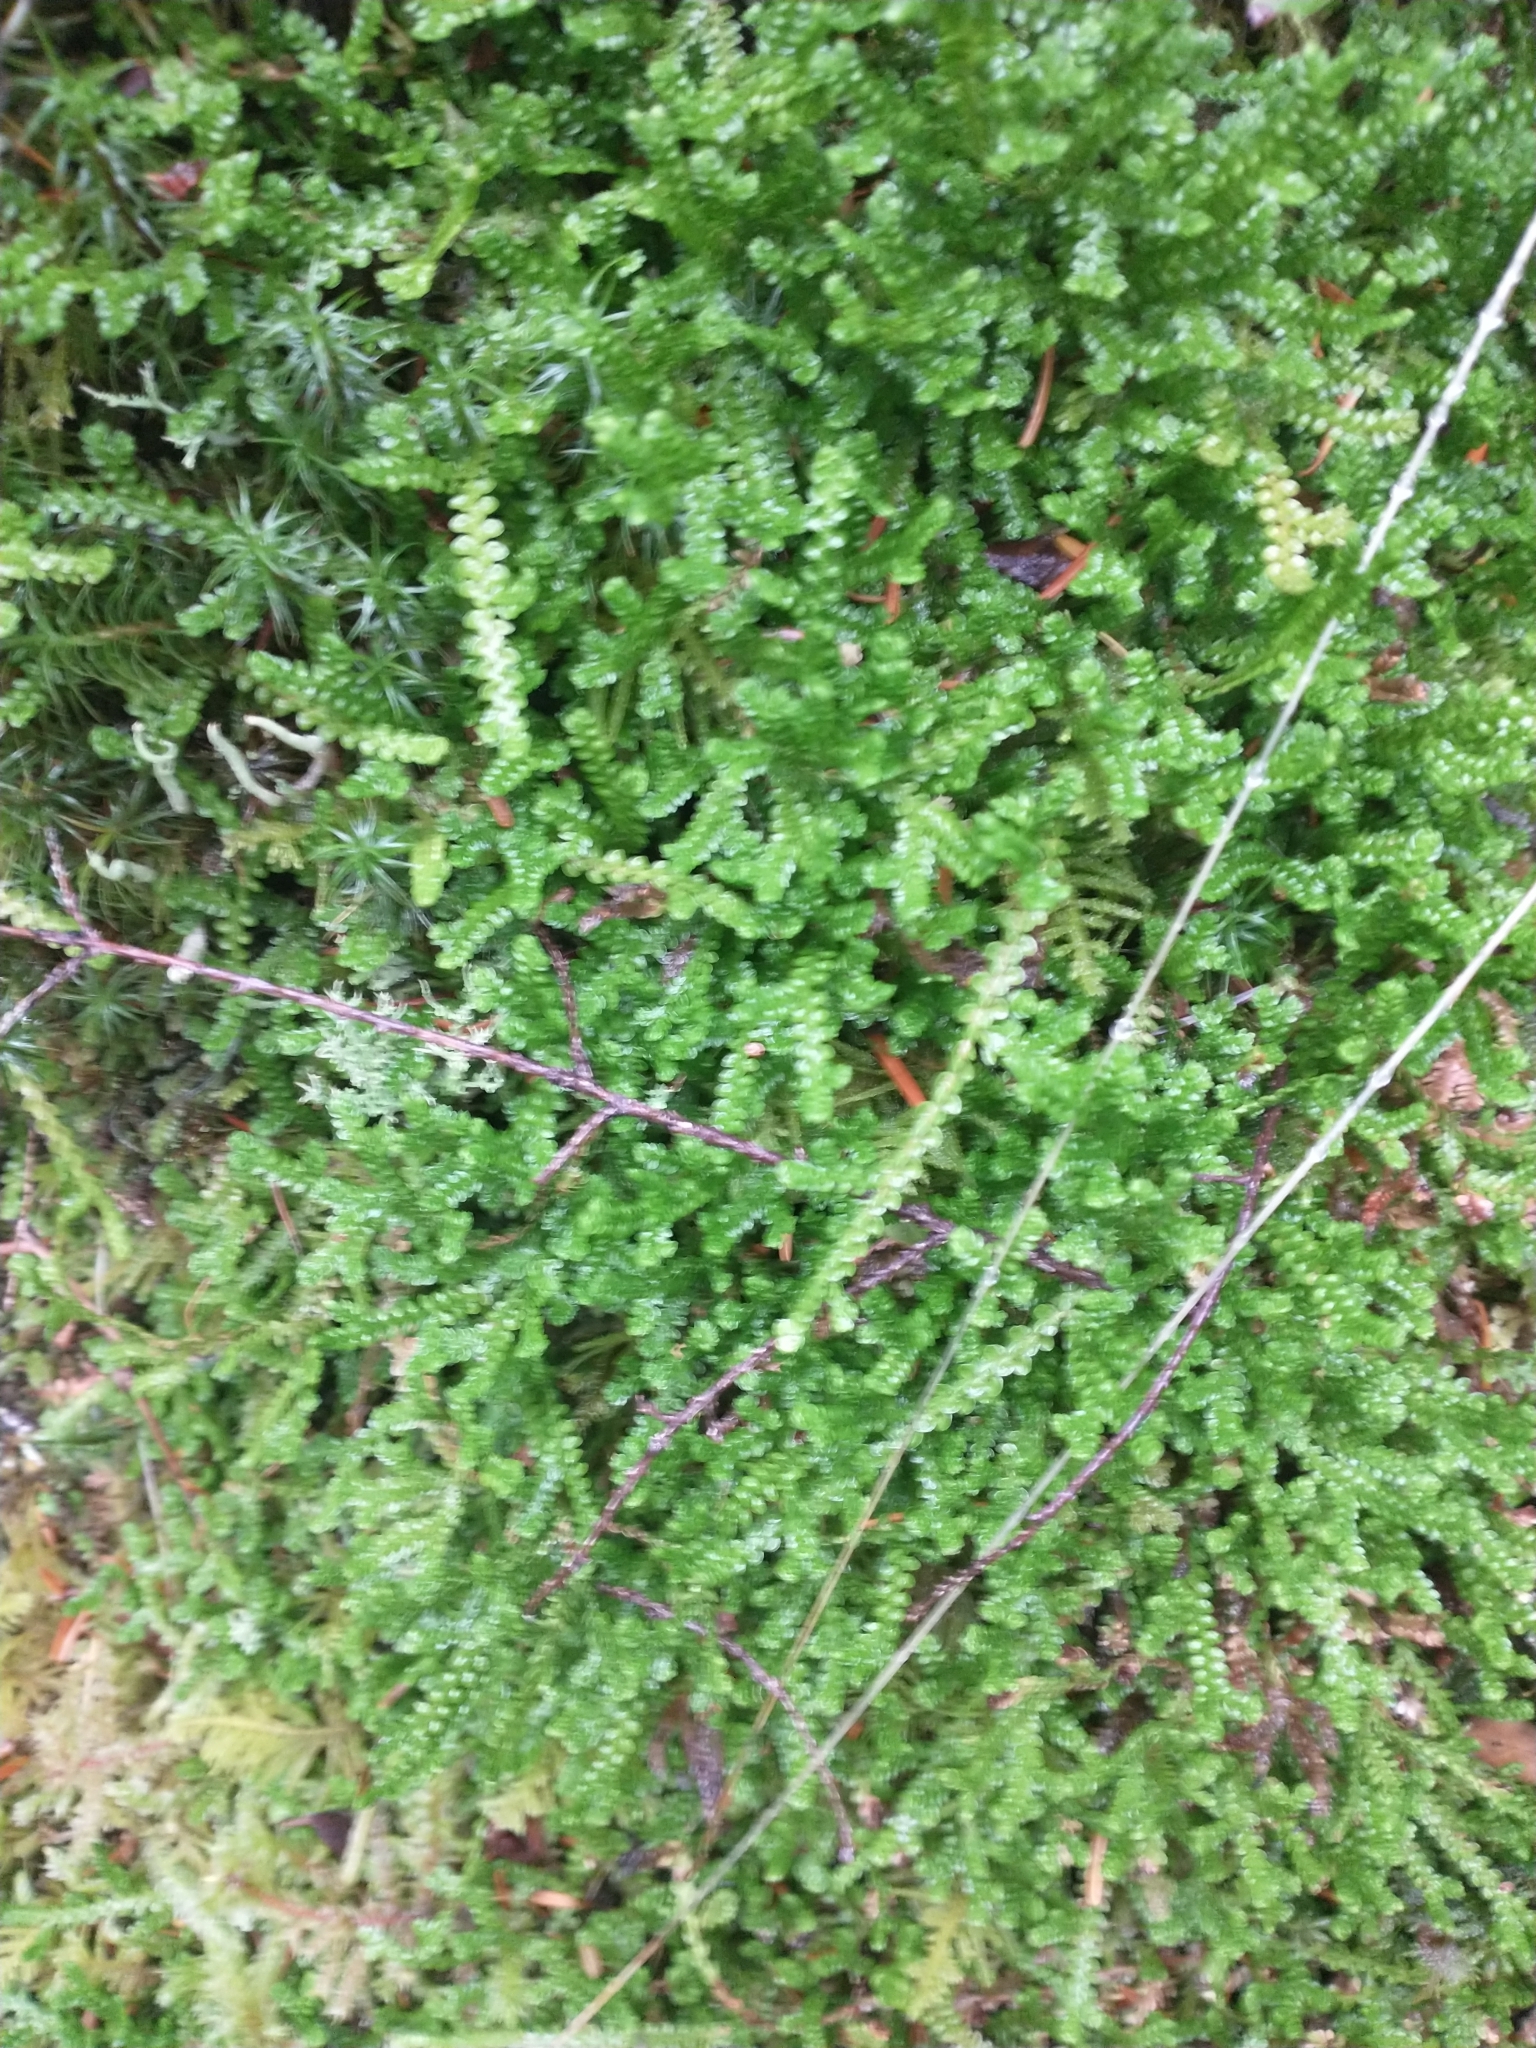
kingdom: Plantae
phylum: Tracheophyta
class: Lycopodiopsida
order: Selaginellales
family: Selaginellaceae
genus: Selaginella
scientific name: Selaginella douglasii
